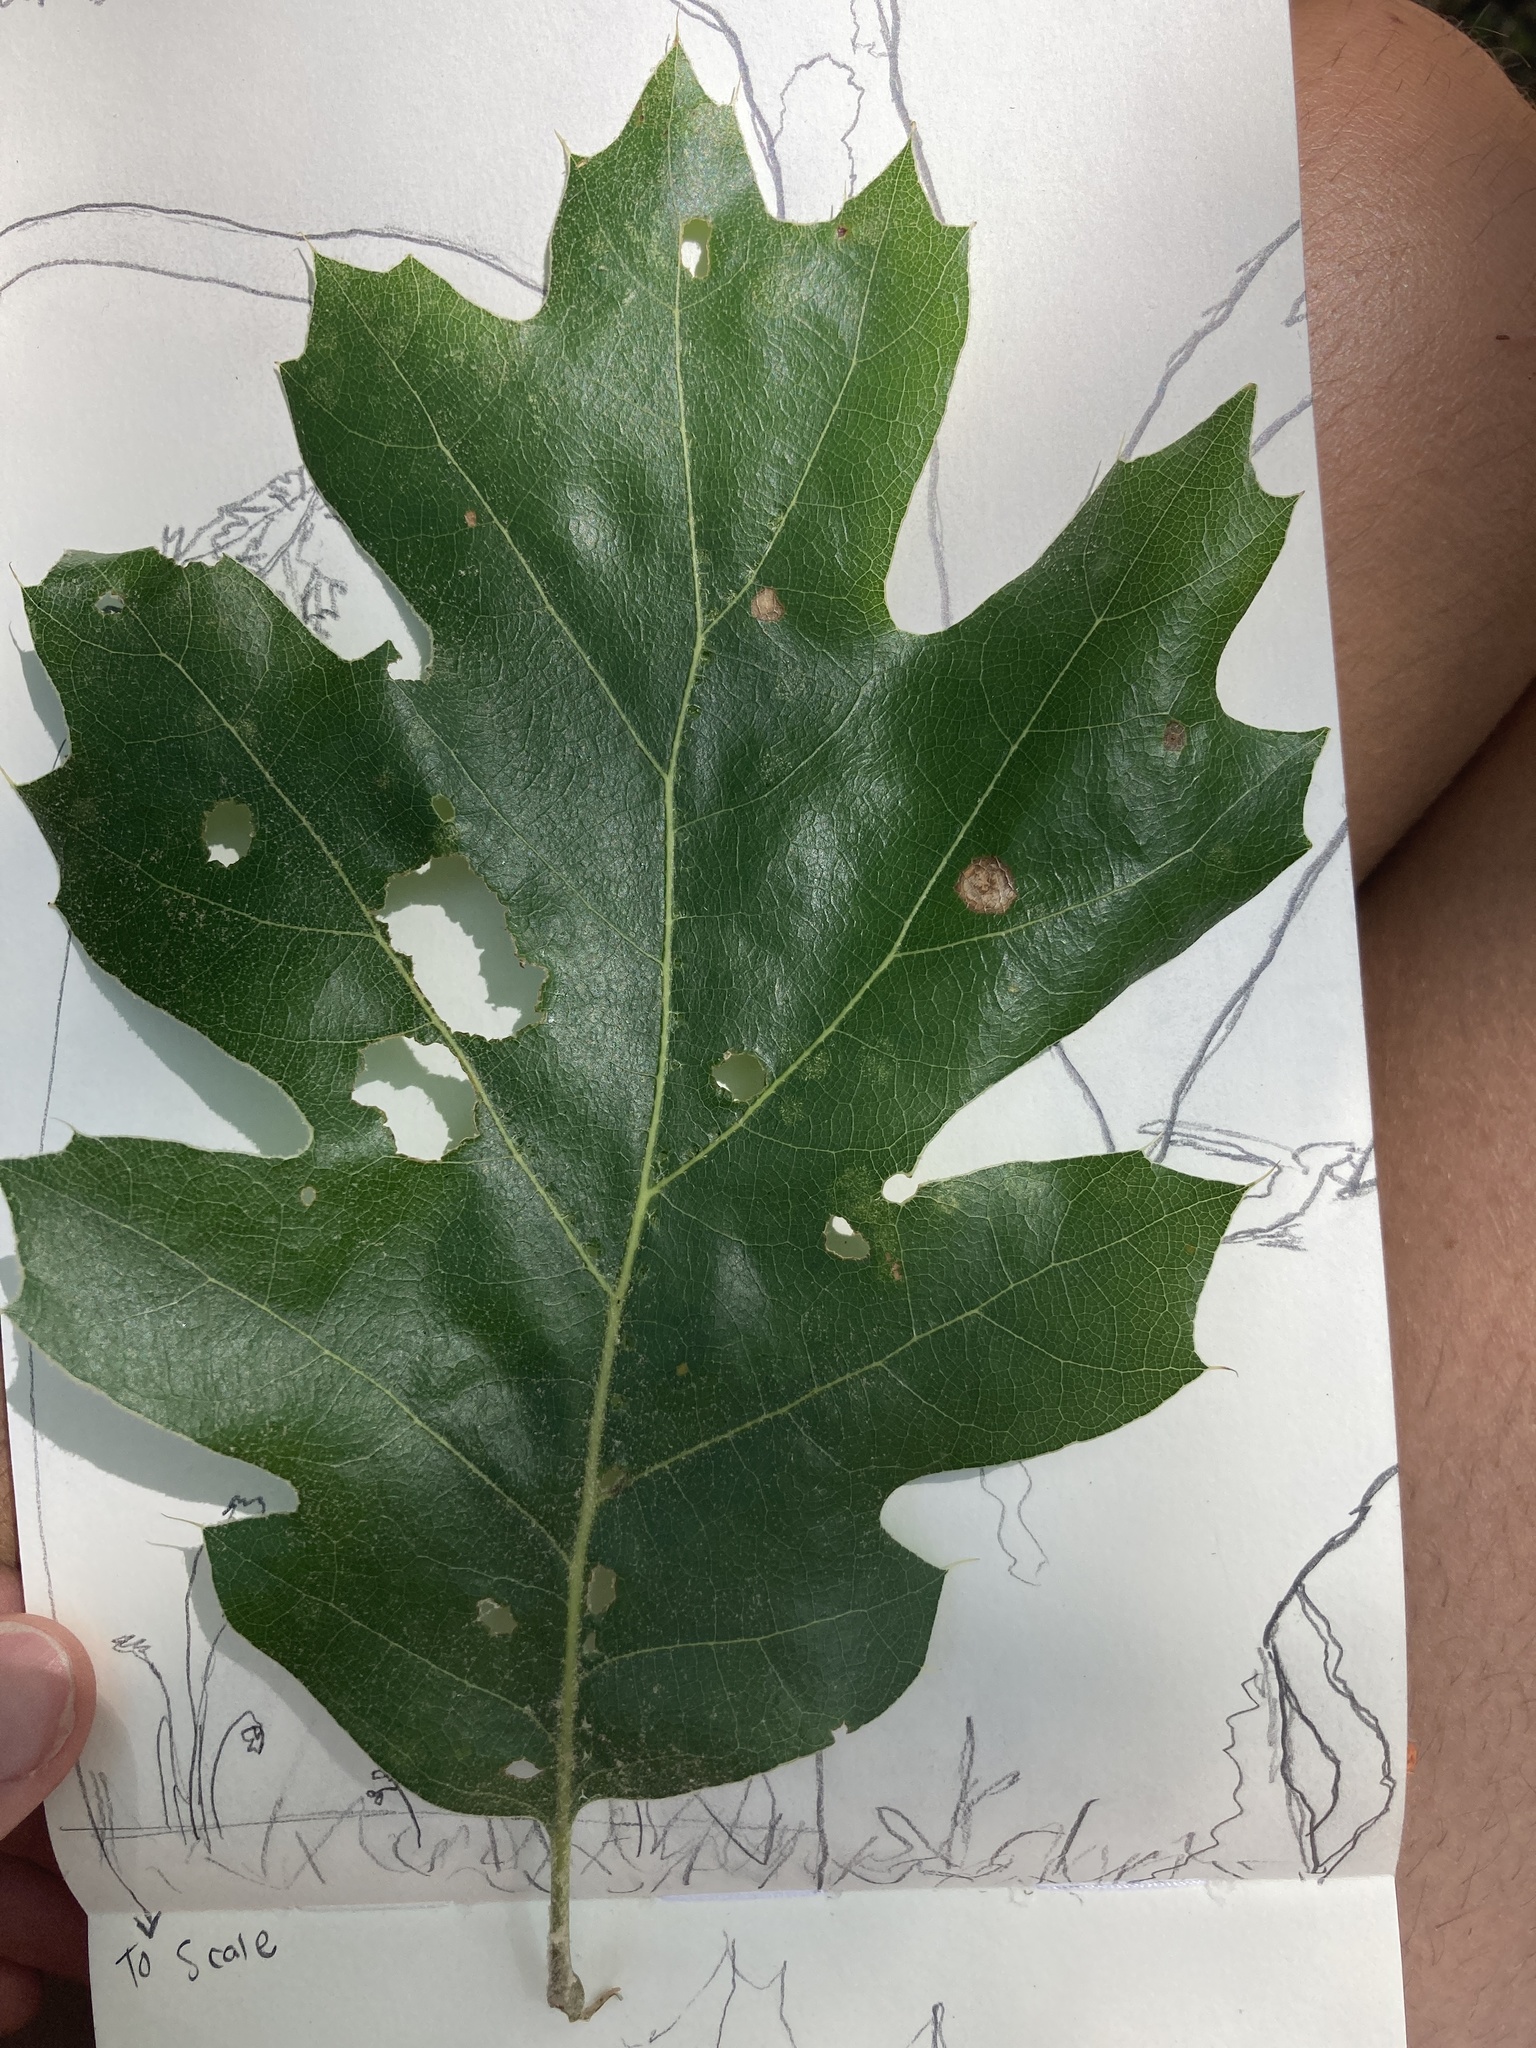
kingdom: Plantae
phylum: Tracheophyta
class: Magnoliopsida
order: Fagales
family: Fagaceae
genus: Quercus
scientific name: Quercus kelloggii
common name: California black oak
